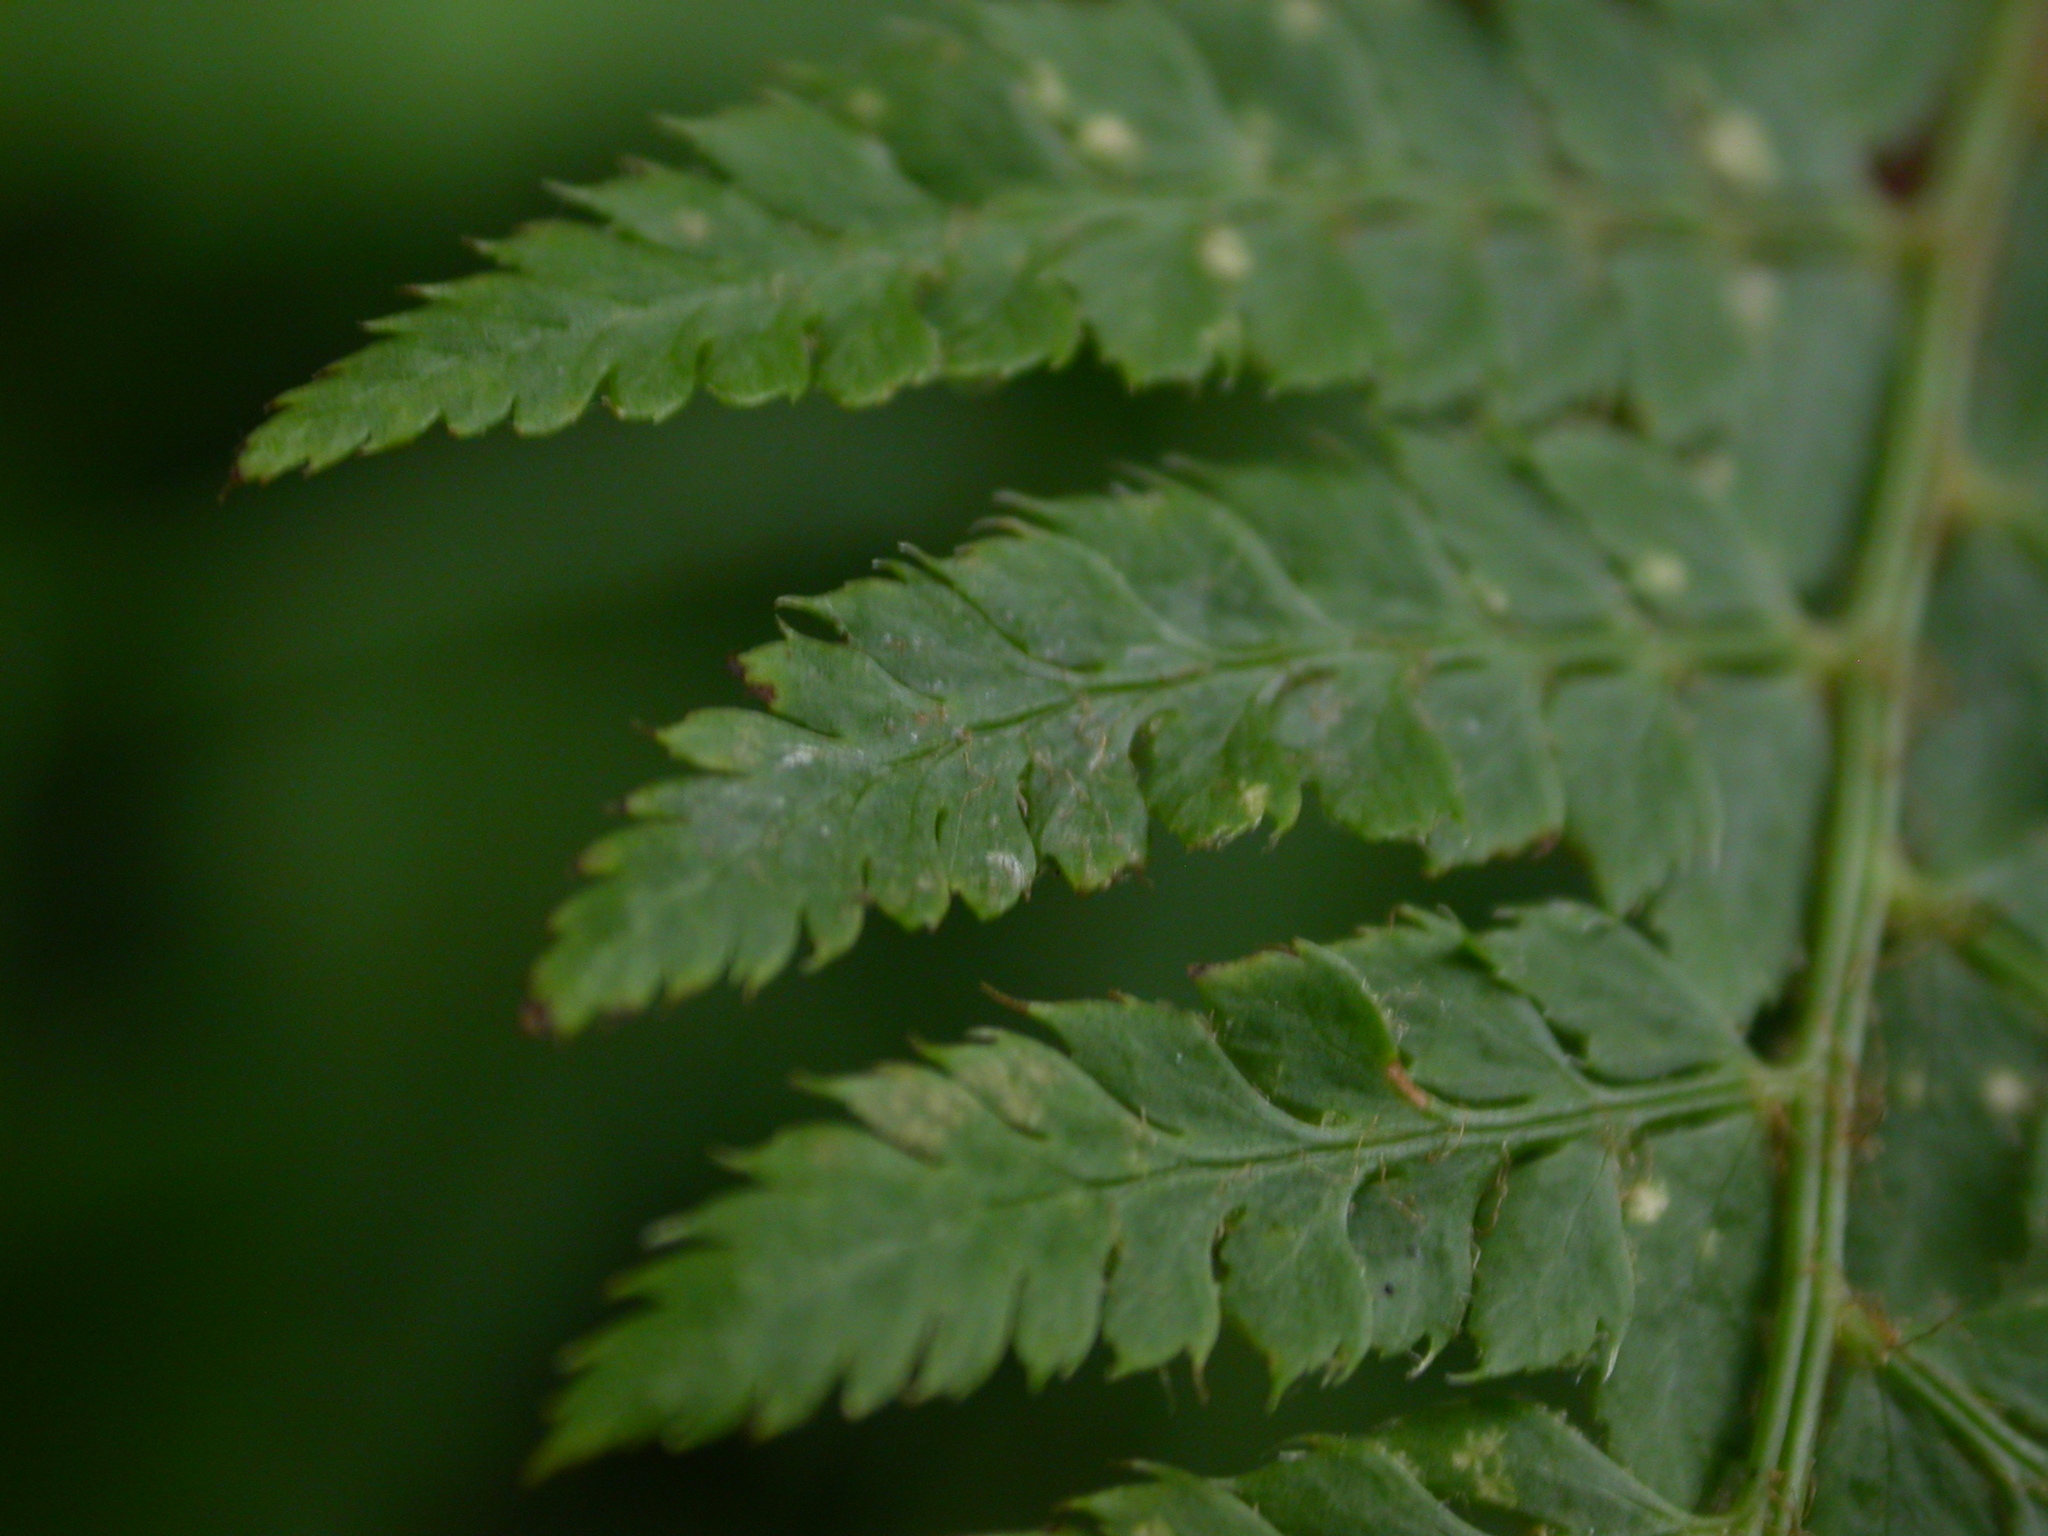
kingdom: Plantae
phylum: Tracheophyta
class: Polypodiopsida
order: Polypodiales
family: Dryopteridaceae
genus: Polystichum
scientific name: Polystichum setiferum
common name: Soft shield-fern
